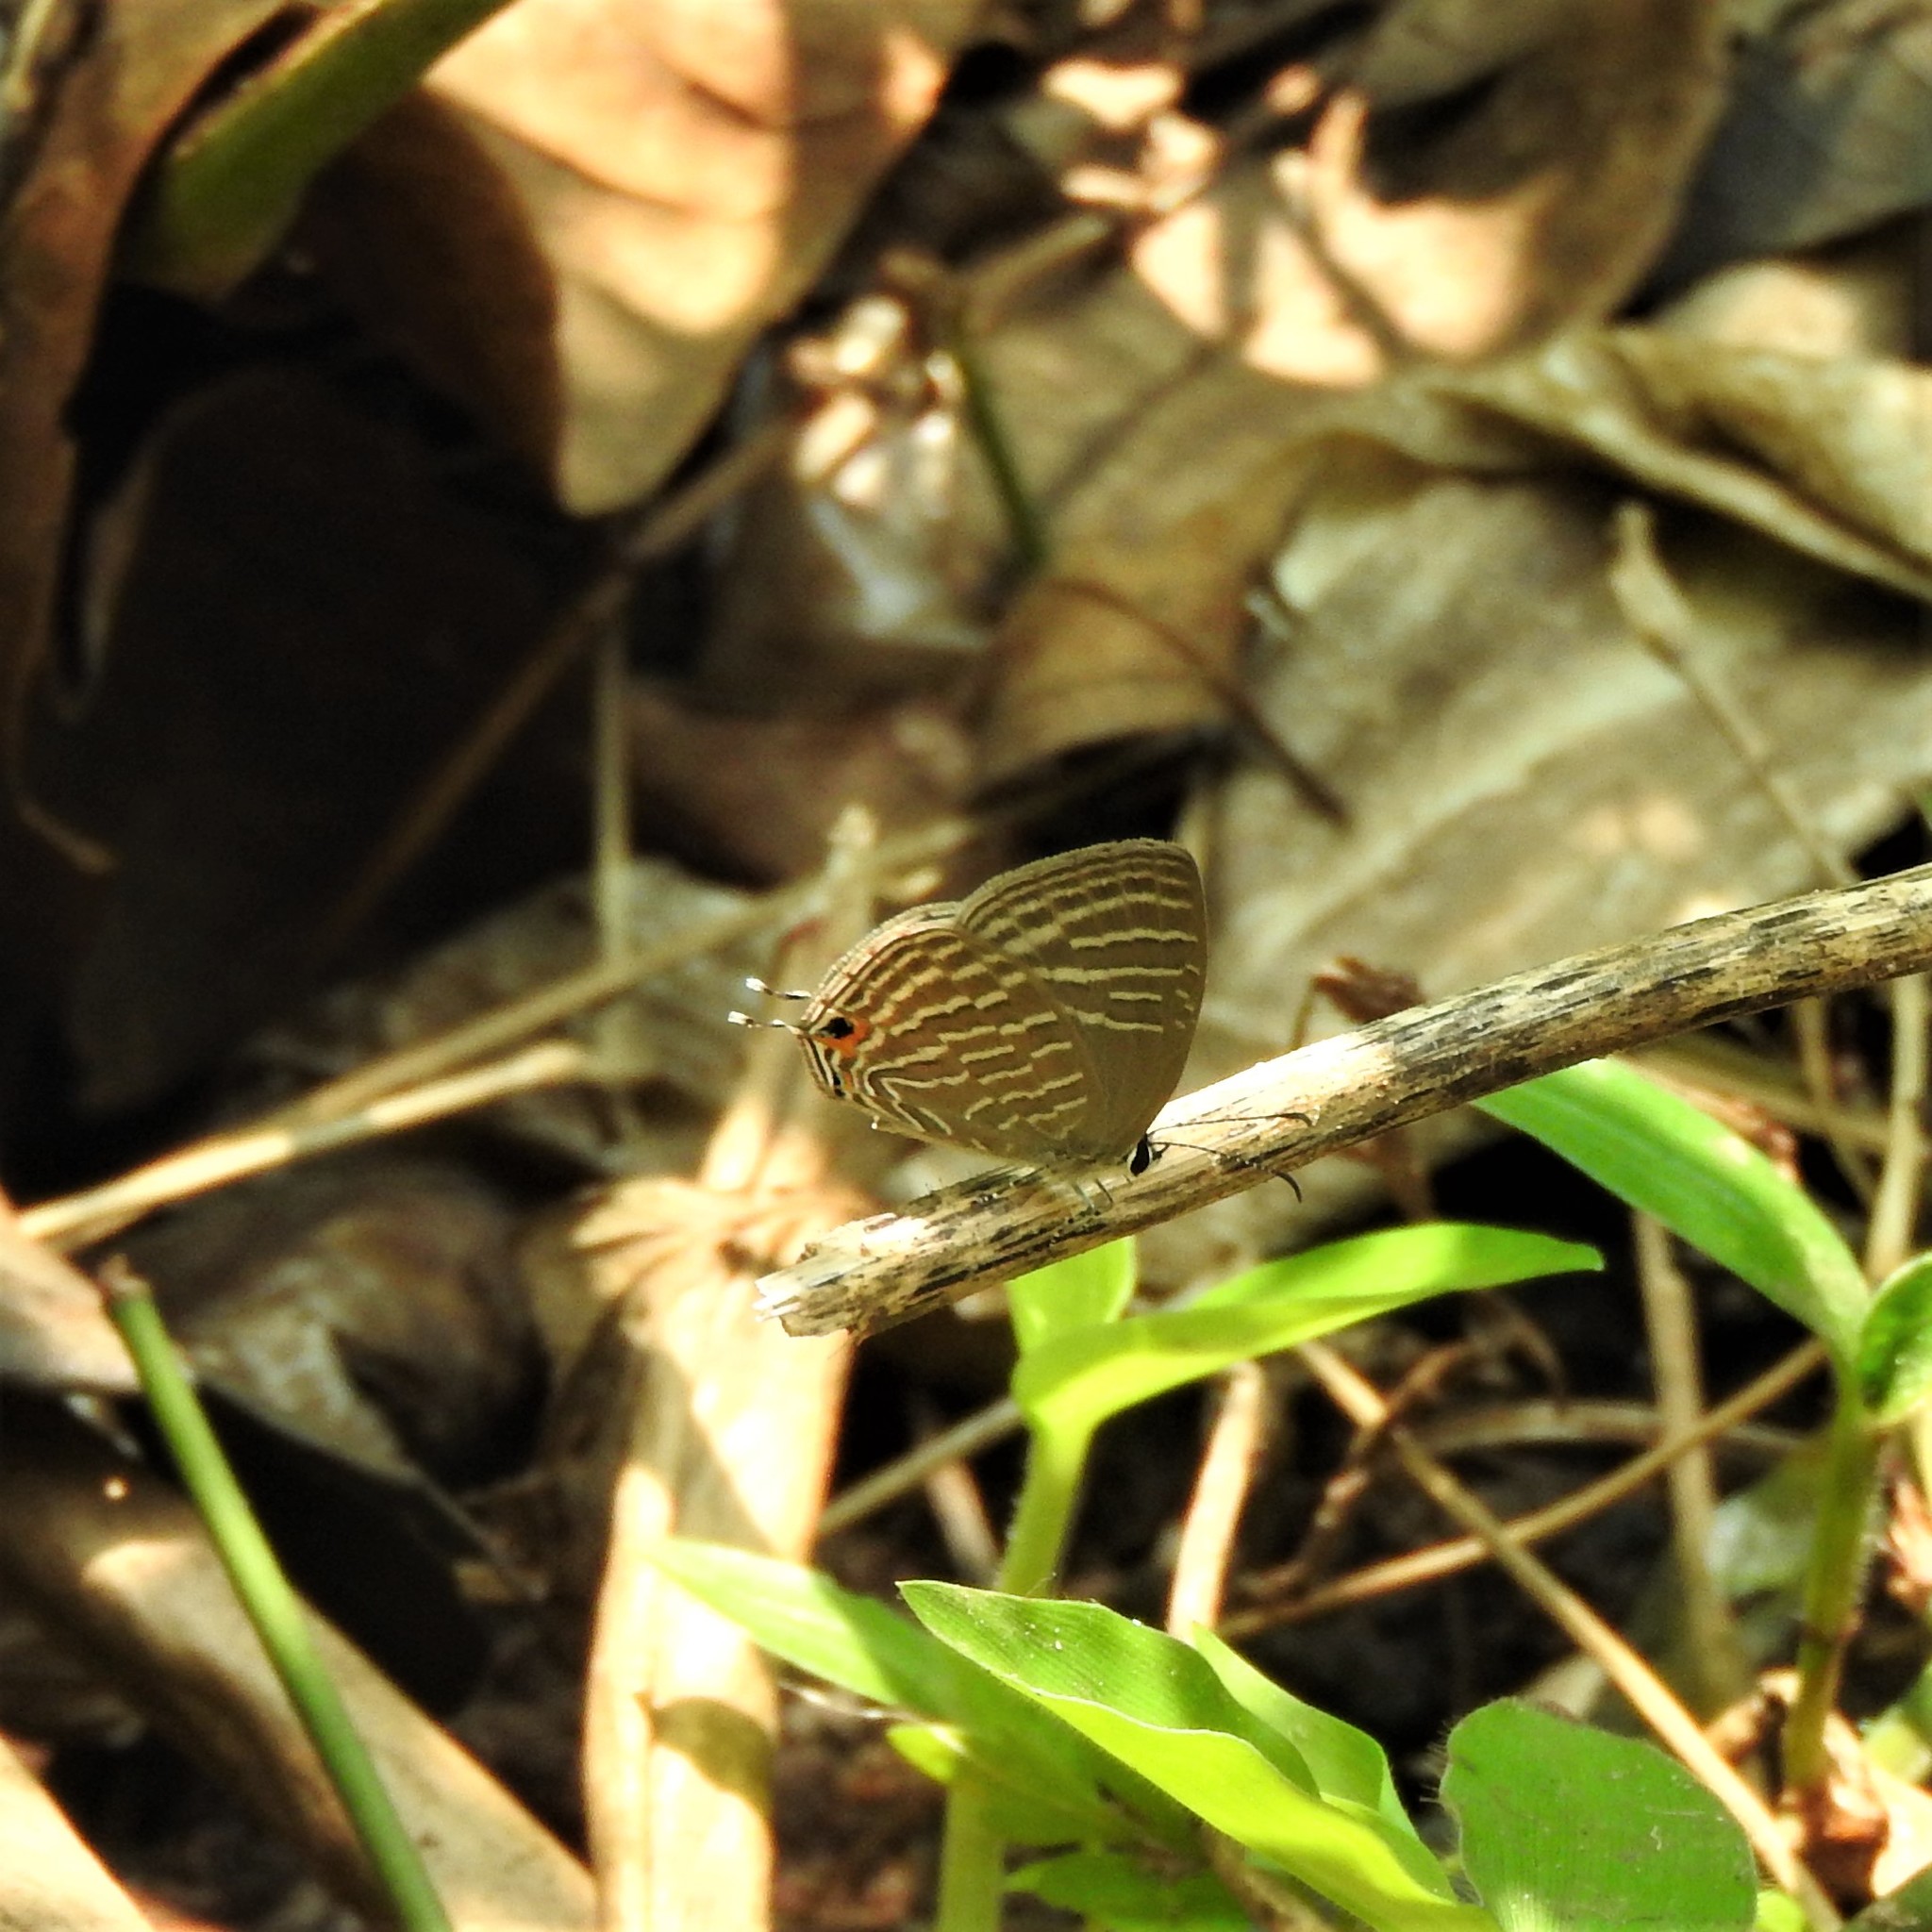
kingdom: Animalia
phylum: Arthropoda
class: Insecta
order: Lepidoptera
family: Lycaenidae
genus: Jamides
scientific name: Jamides celeno
